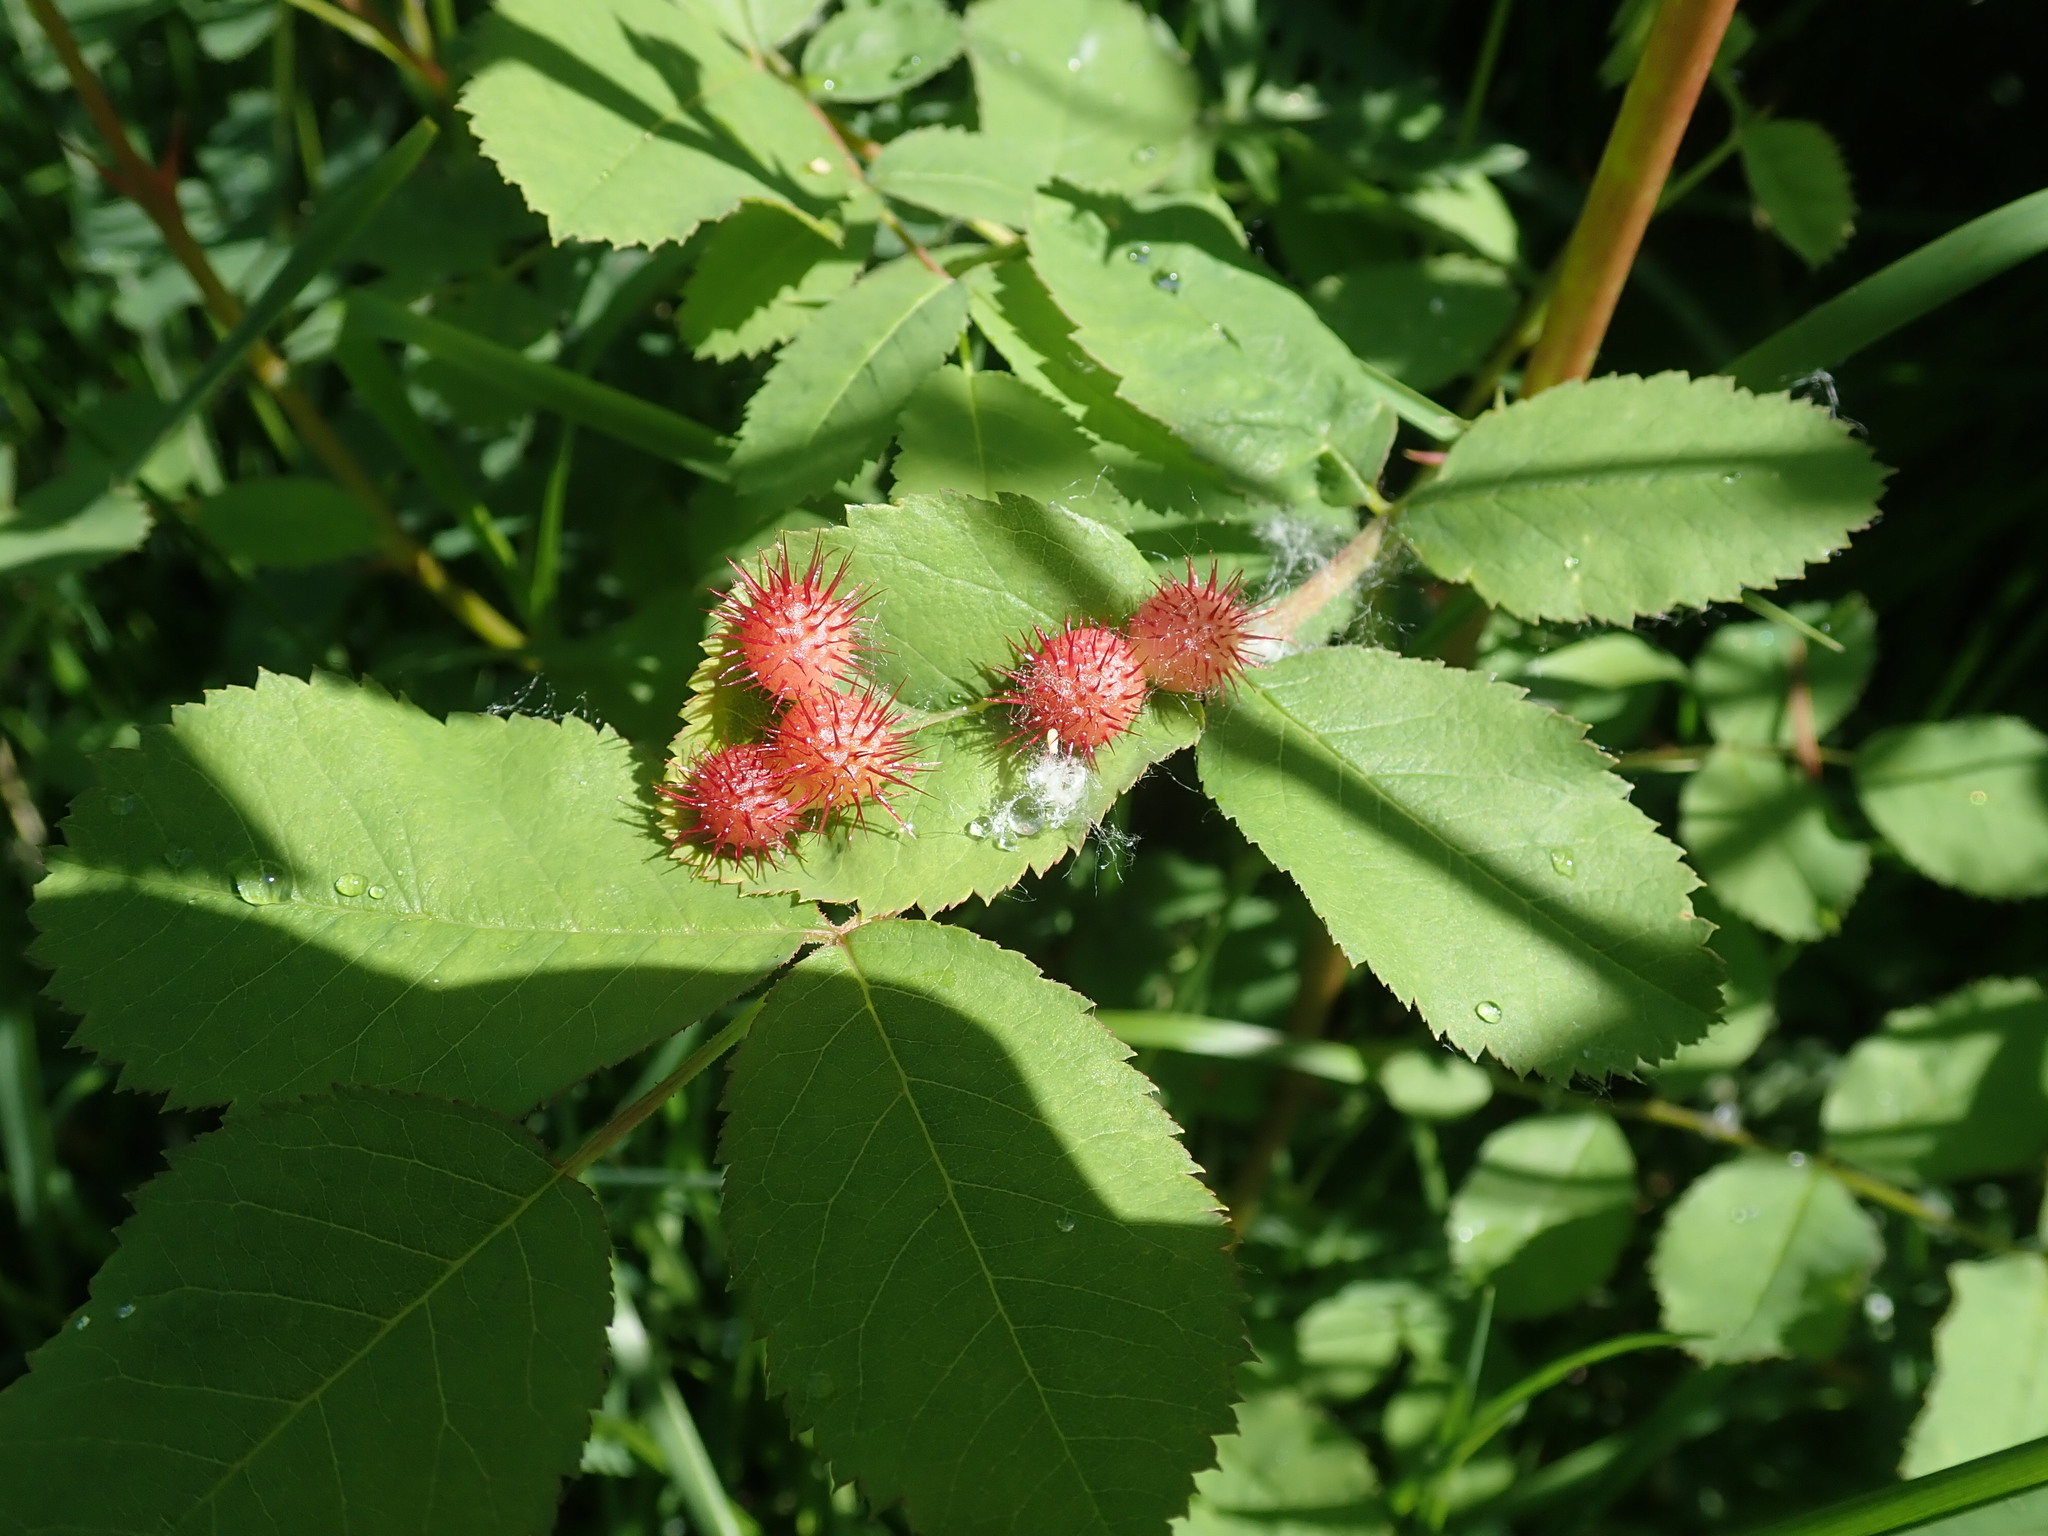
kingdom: Animalia
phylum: Arthropoda
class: Insecta
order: Hymenoptera
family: Cynipidae
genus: Diplolepis
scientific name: Diplolepis polita
